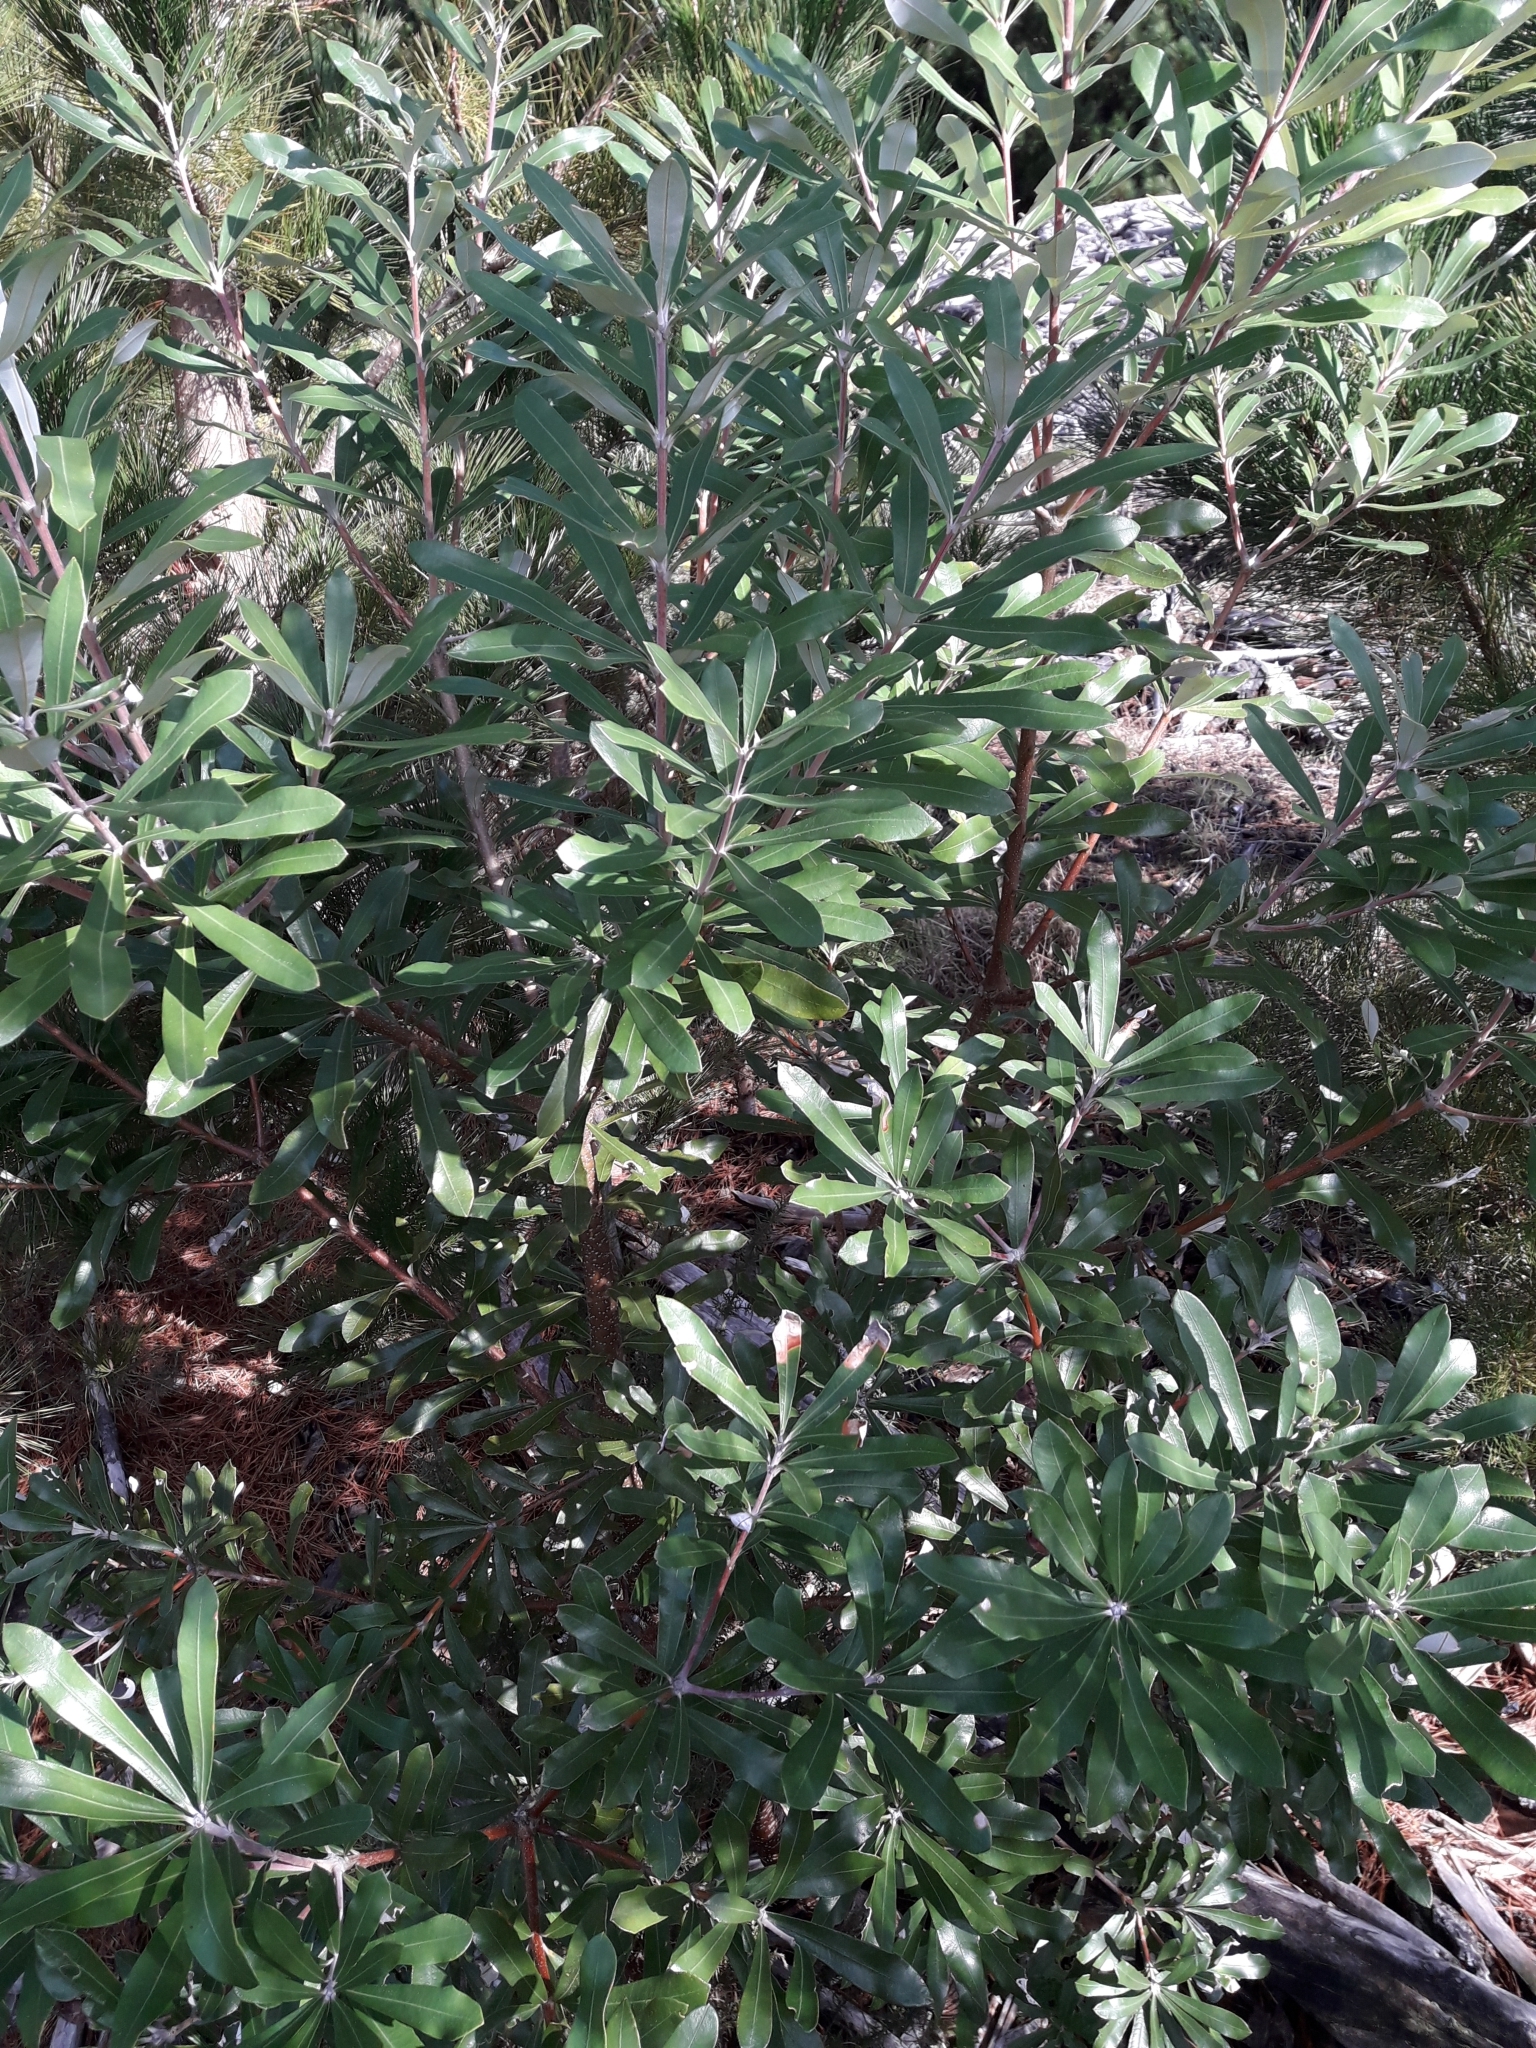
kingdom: Plantae
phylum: Tracheophyta
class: Magnoliopsida
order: Proteales
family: Proteaceae
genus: Banksia
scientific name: Banksia integrifolia
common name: White-honeysuckle
